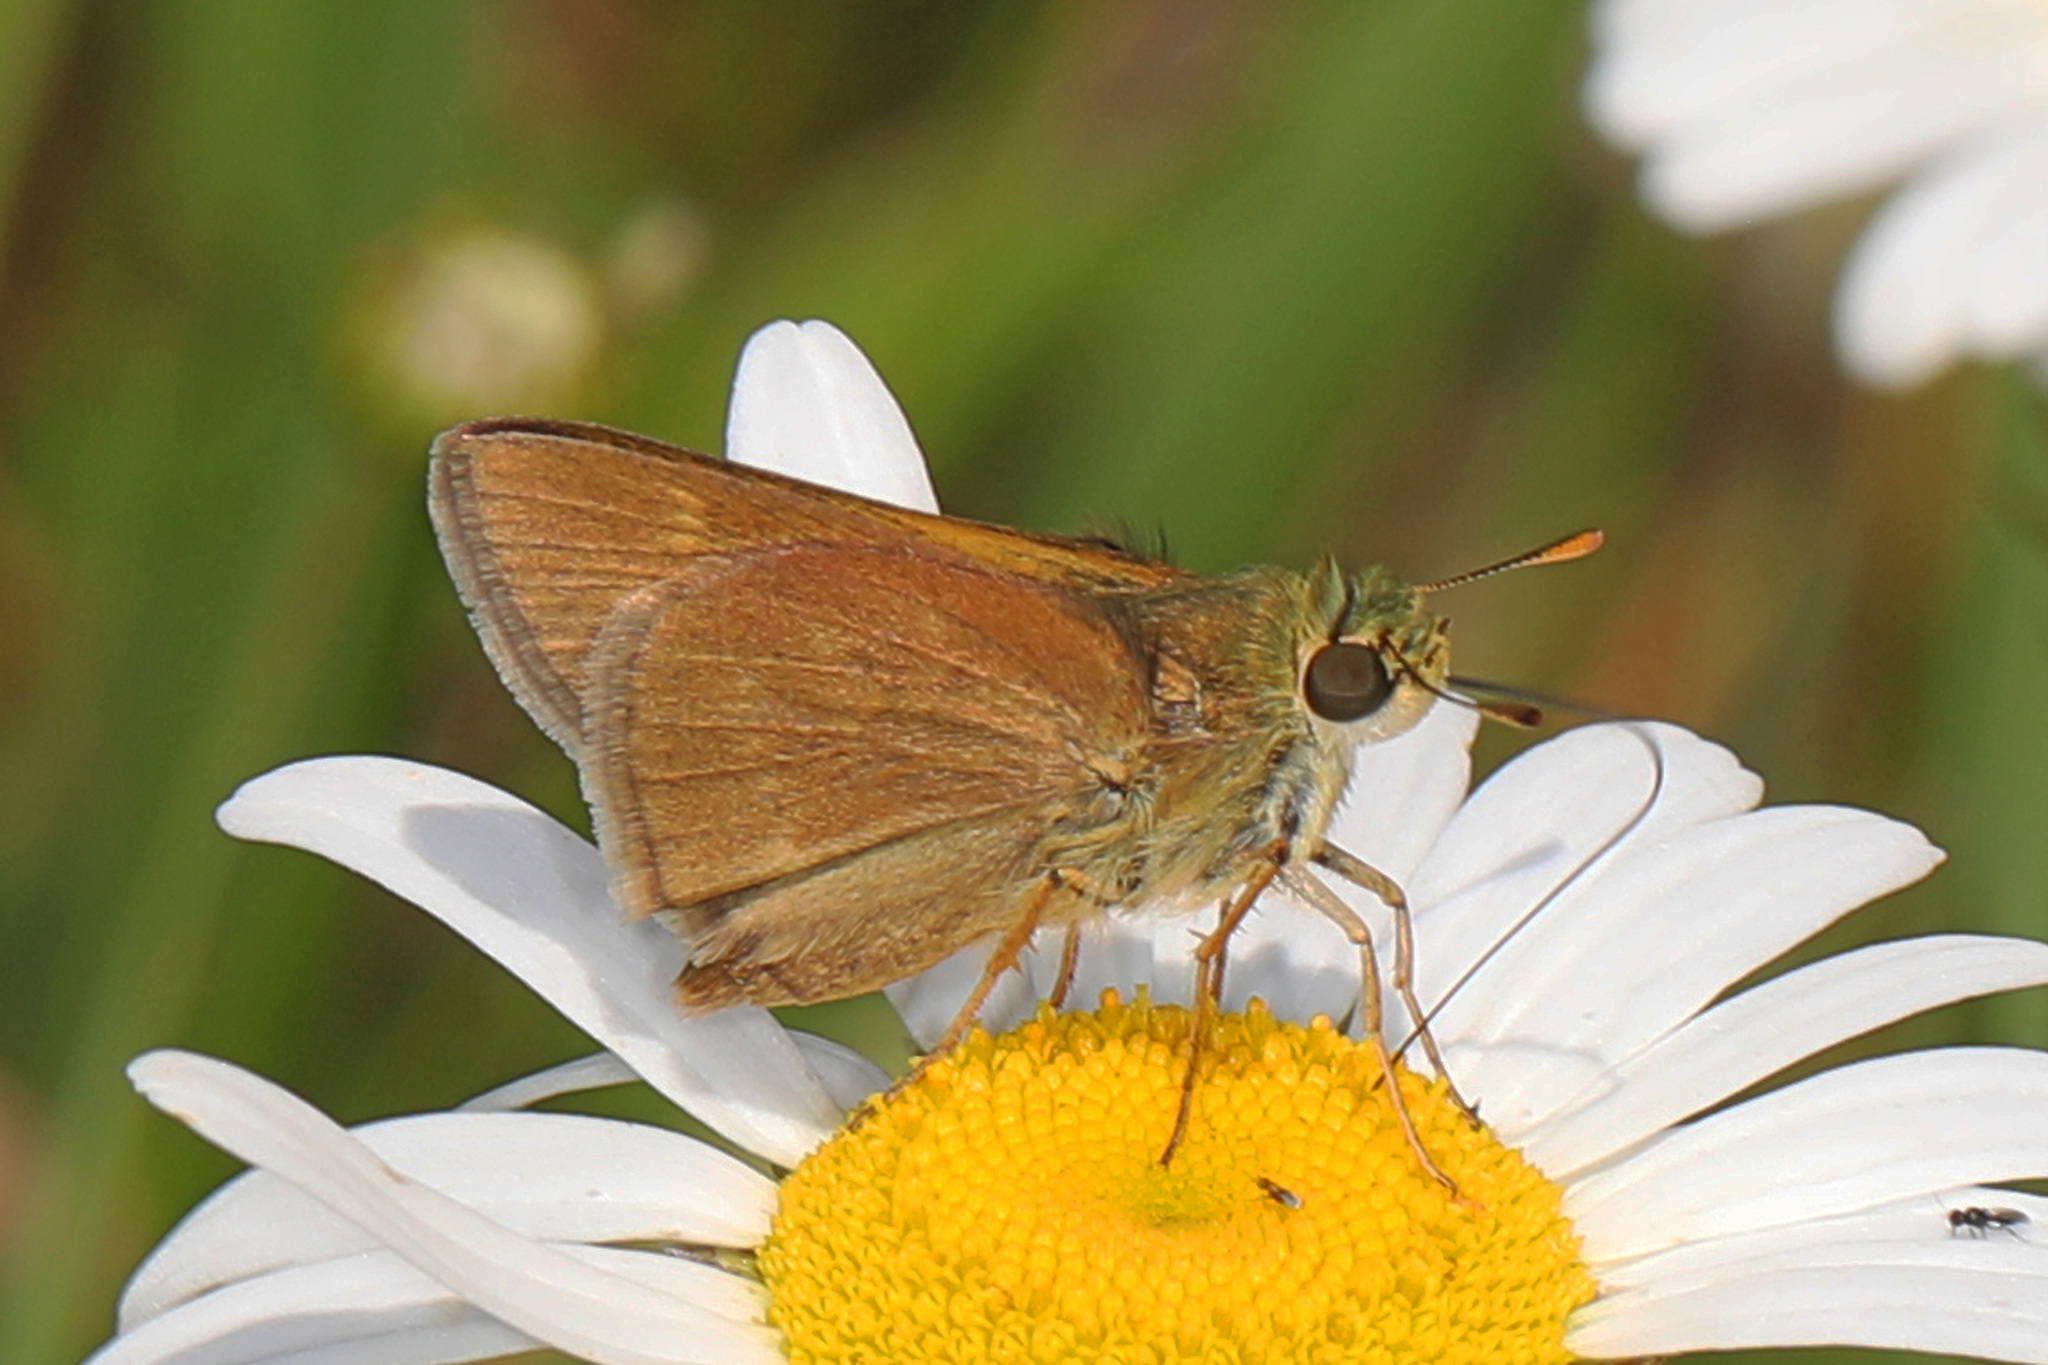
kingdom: Animalia
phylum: Arthropoda
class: Insecta
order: Lepidoptera
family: Hesperiidae
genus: Polites
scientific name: Polites origenes
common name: Crossline skipper
